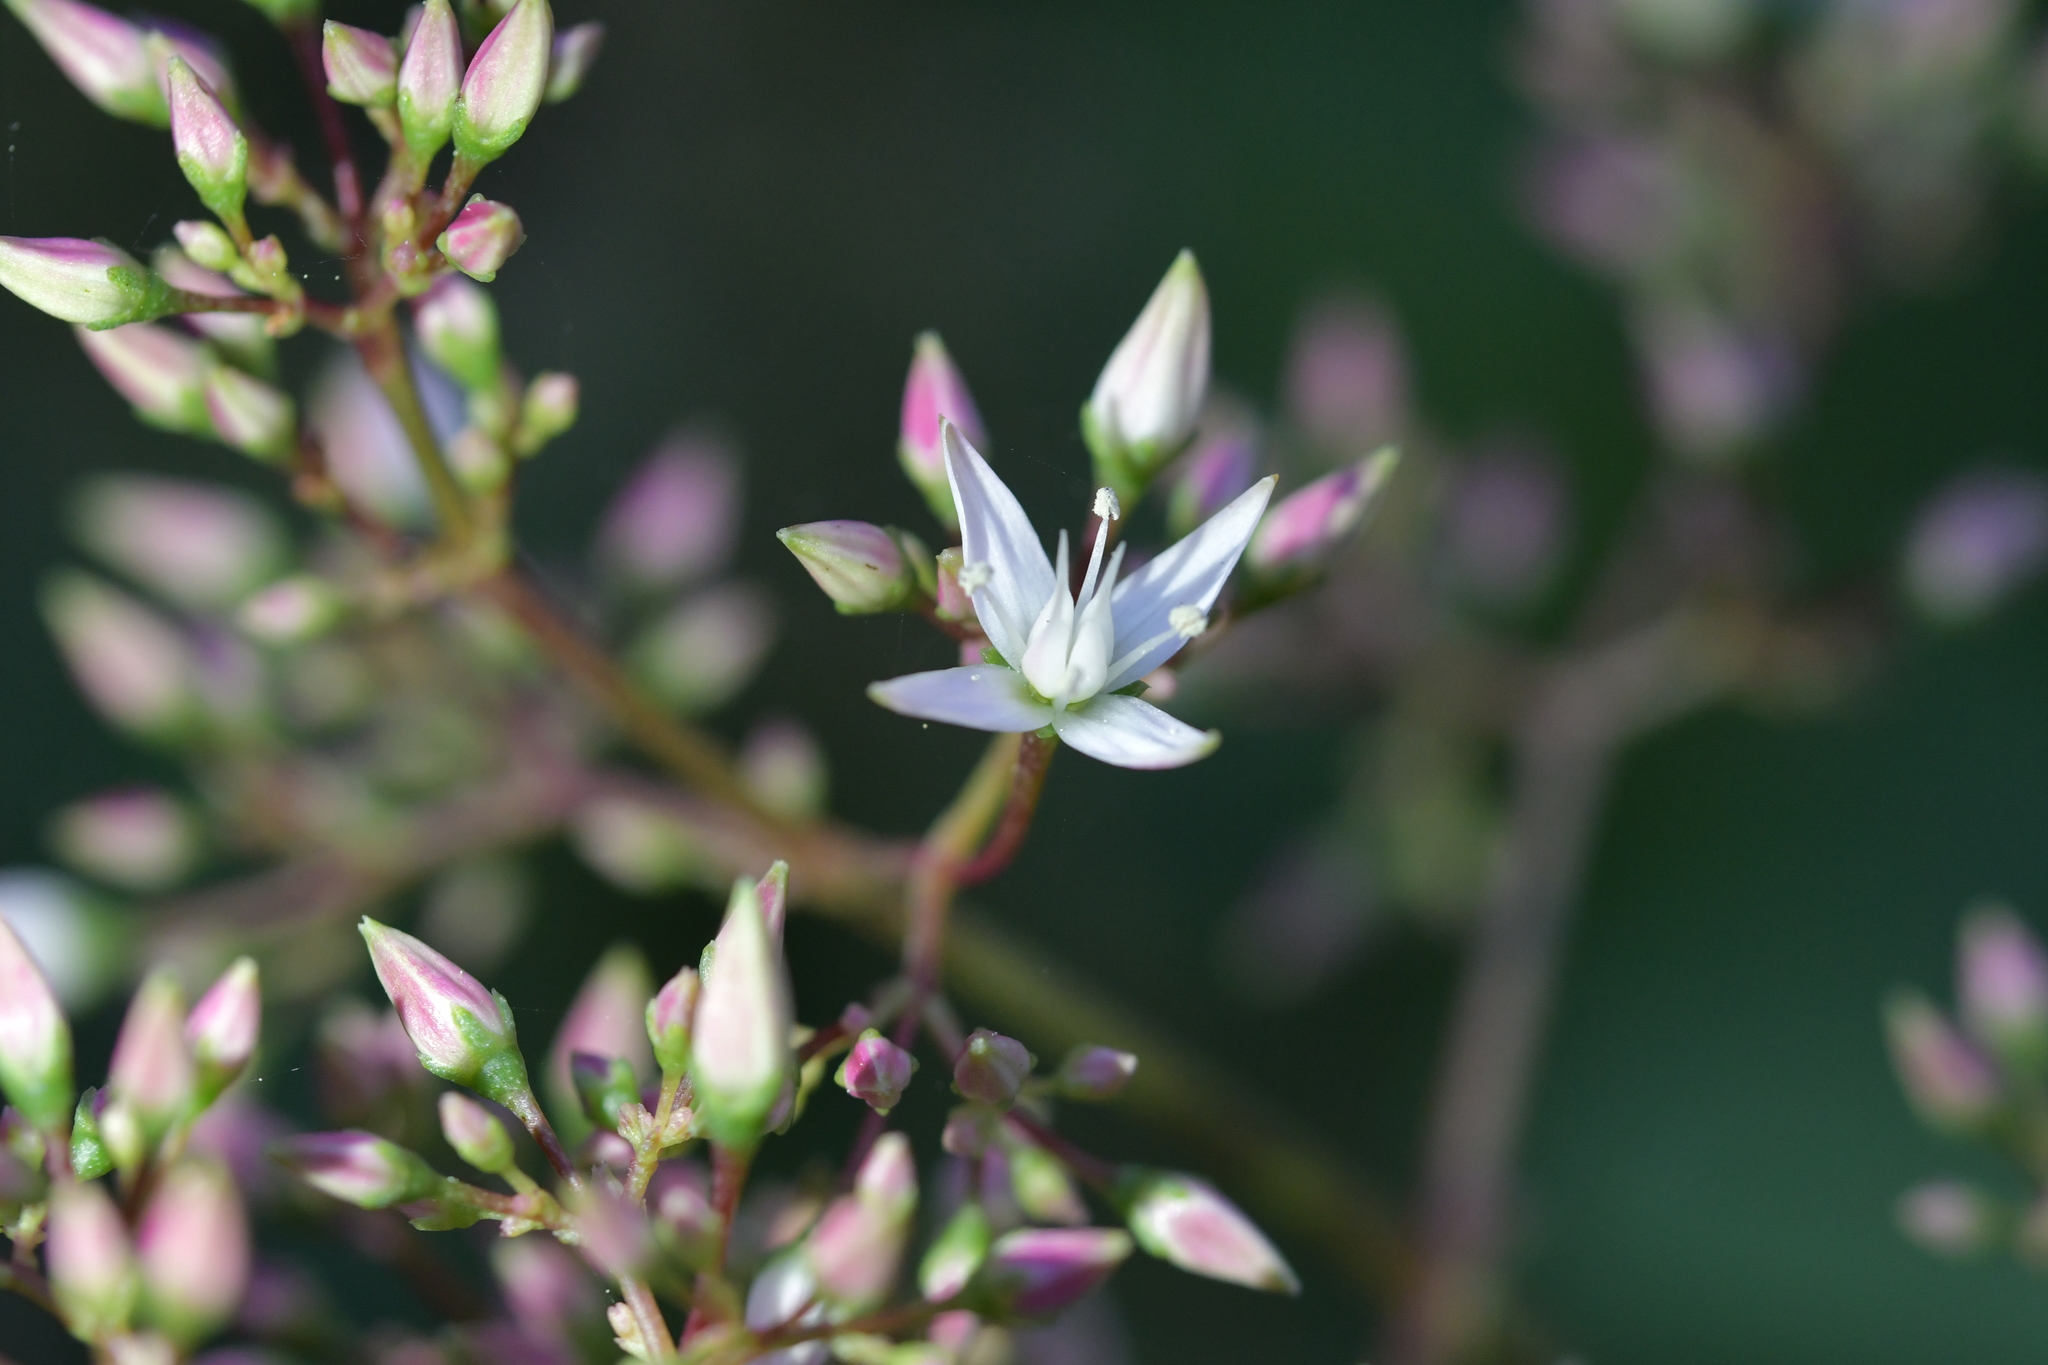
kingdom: Plantae
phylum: Tracheophyta
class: Magnoliopsida
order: Saxifragales
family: Crassulaceae
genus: Crassula
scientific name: Crassula multicava
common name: Cape province pygmyweed
